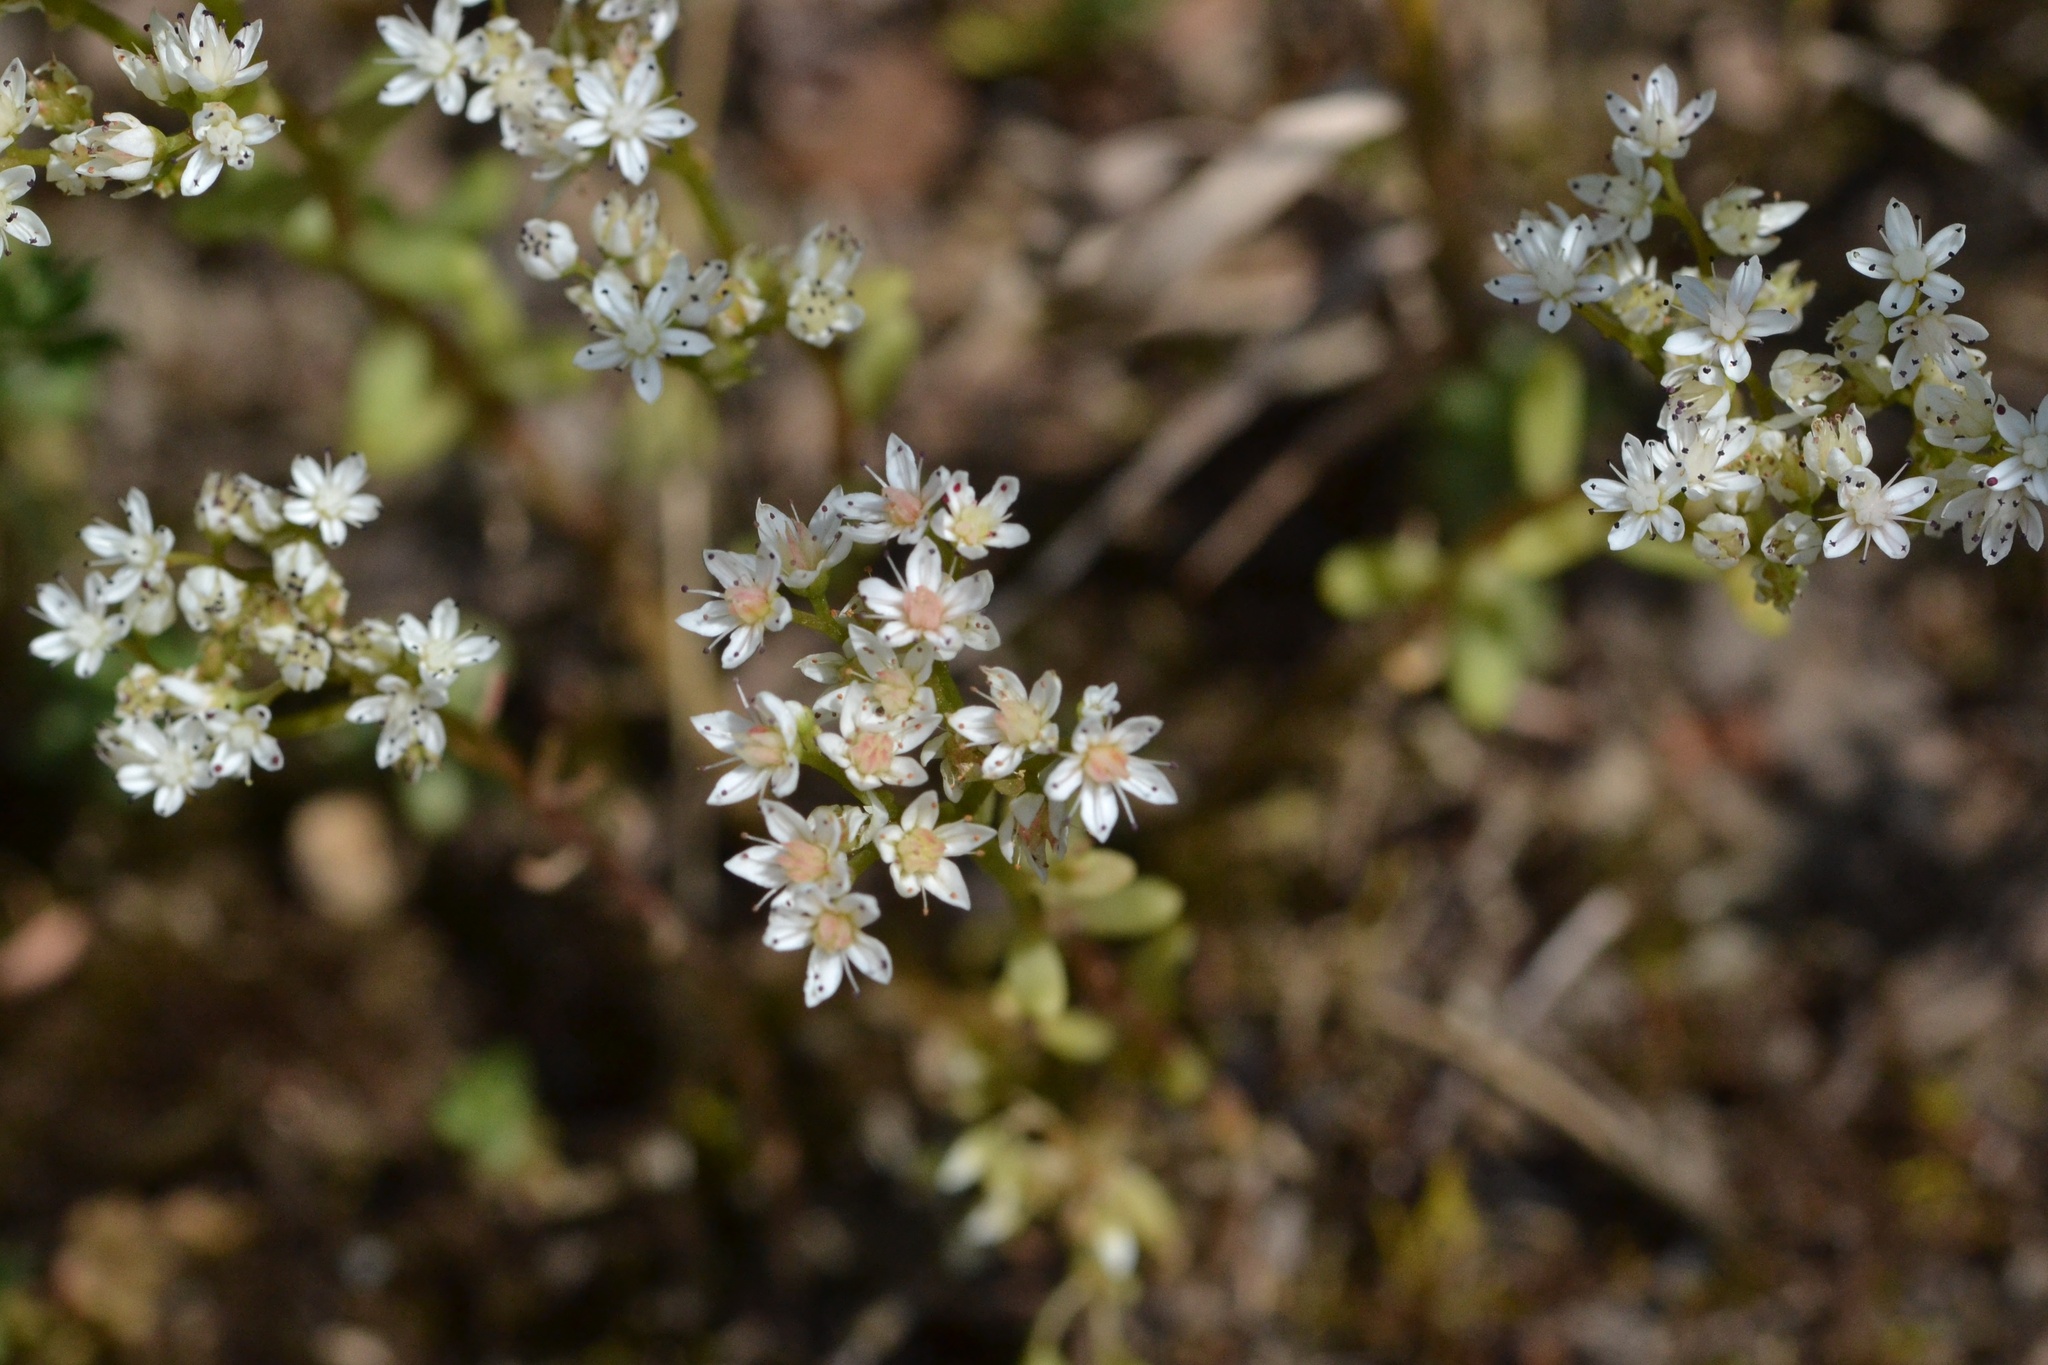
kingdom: Plantae
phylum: Tracheophyta
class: Magnoliopsida
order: Saxifragales
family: Crassulaceae
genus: Sedum
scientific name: Sedum album
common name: White stonecrop
